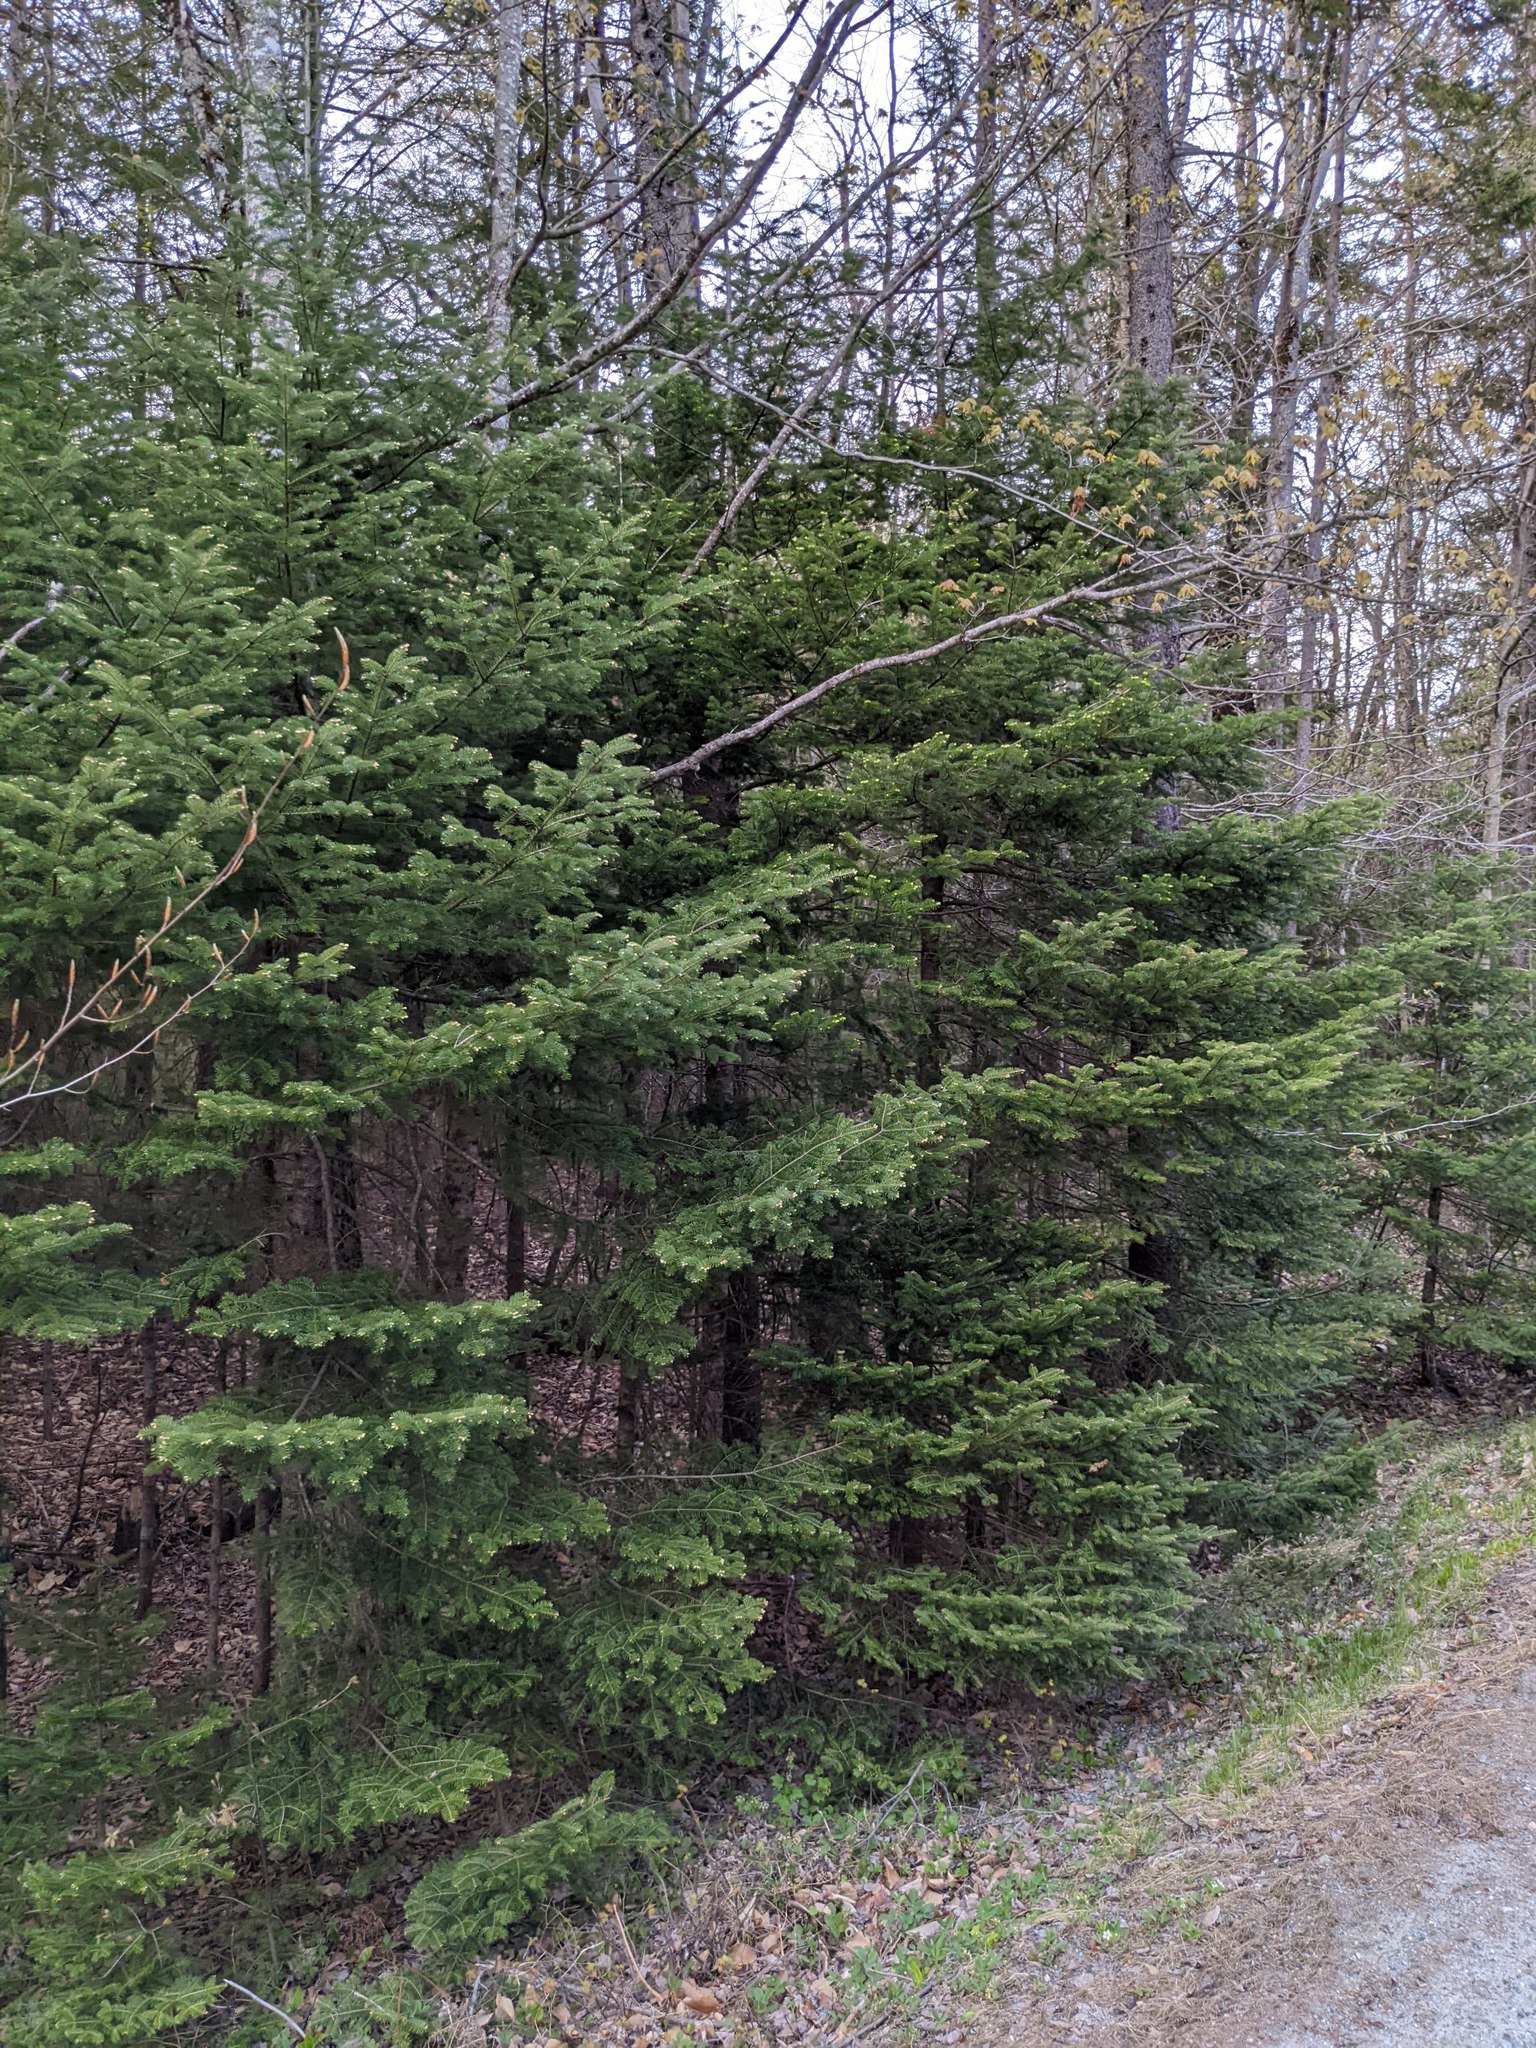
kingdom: Plantae
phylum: Tracheophyta
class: Pinopsida
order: Pinales
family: Pinaceae
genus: Abies
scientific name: Abies balsamea
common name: Balsam fir
